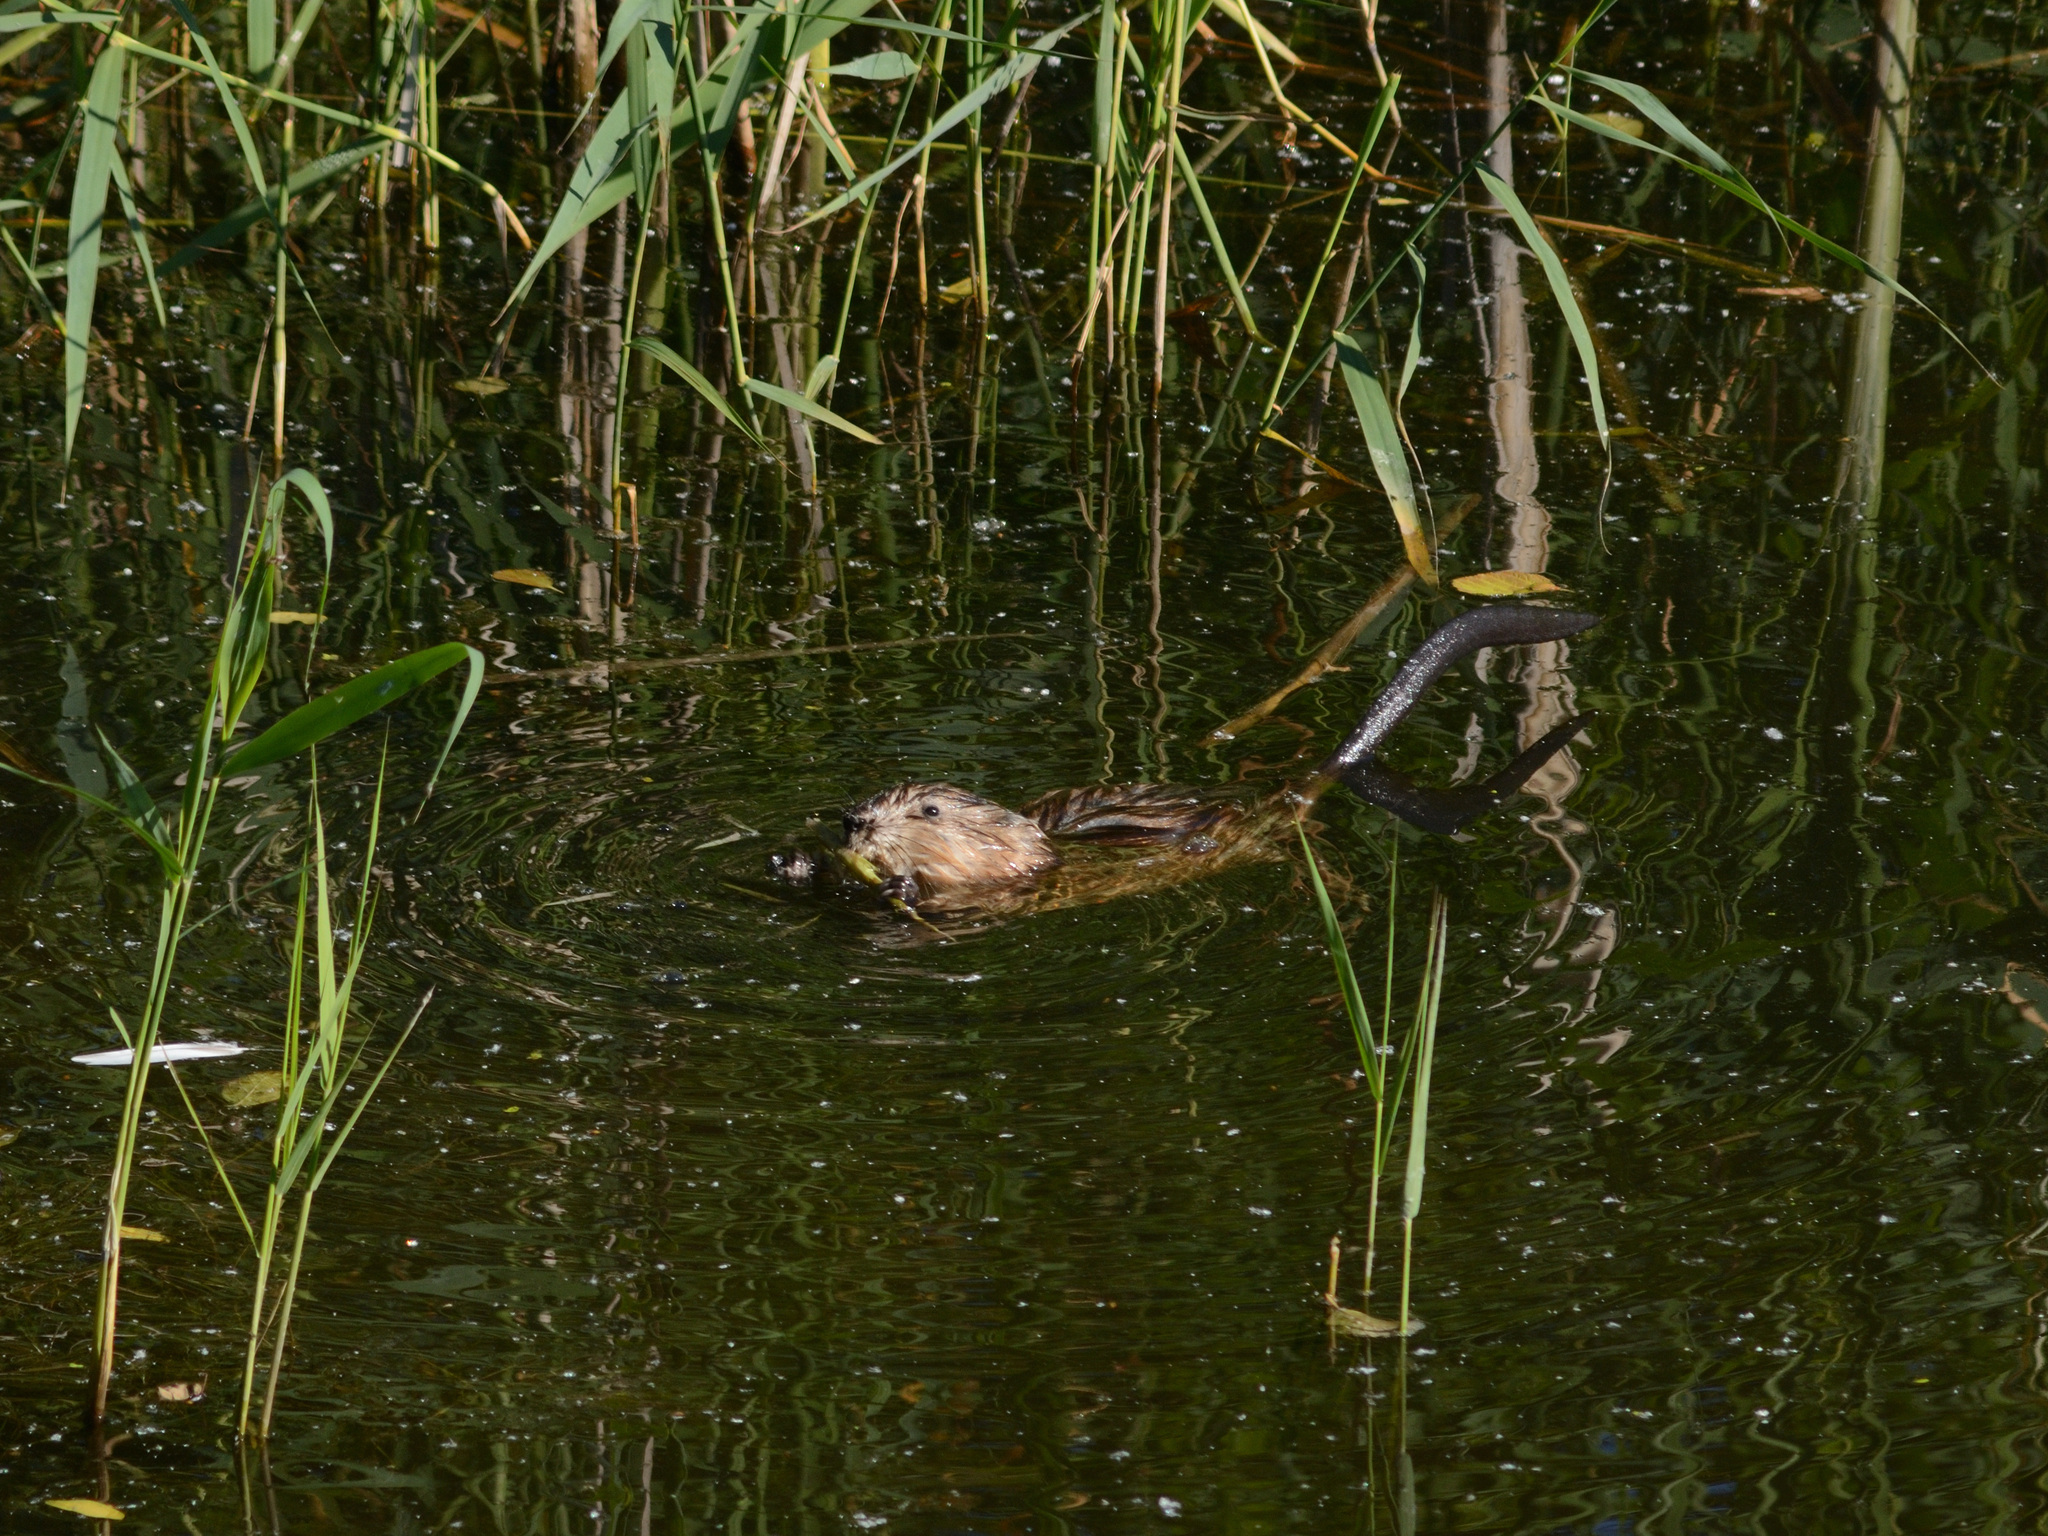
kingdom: Animalia
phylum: Chordata
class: Mammalia
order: Rodentia
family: Cricetidae
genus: Ondatra
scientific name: Ondatra zibethicus
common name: Muskrat
